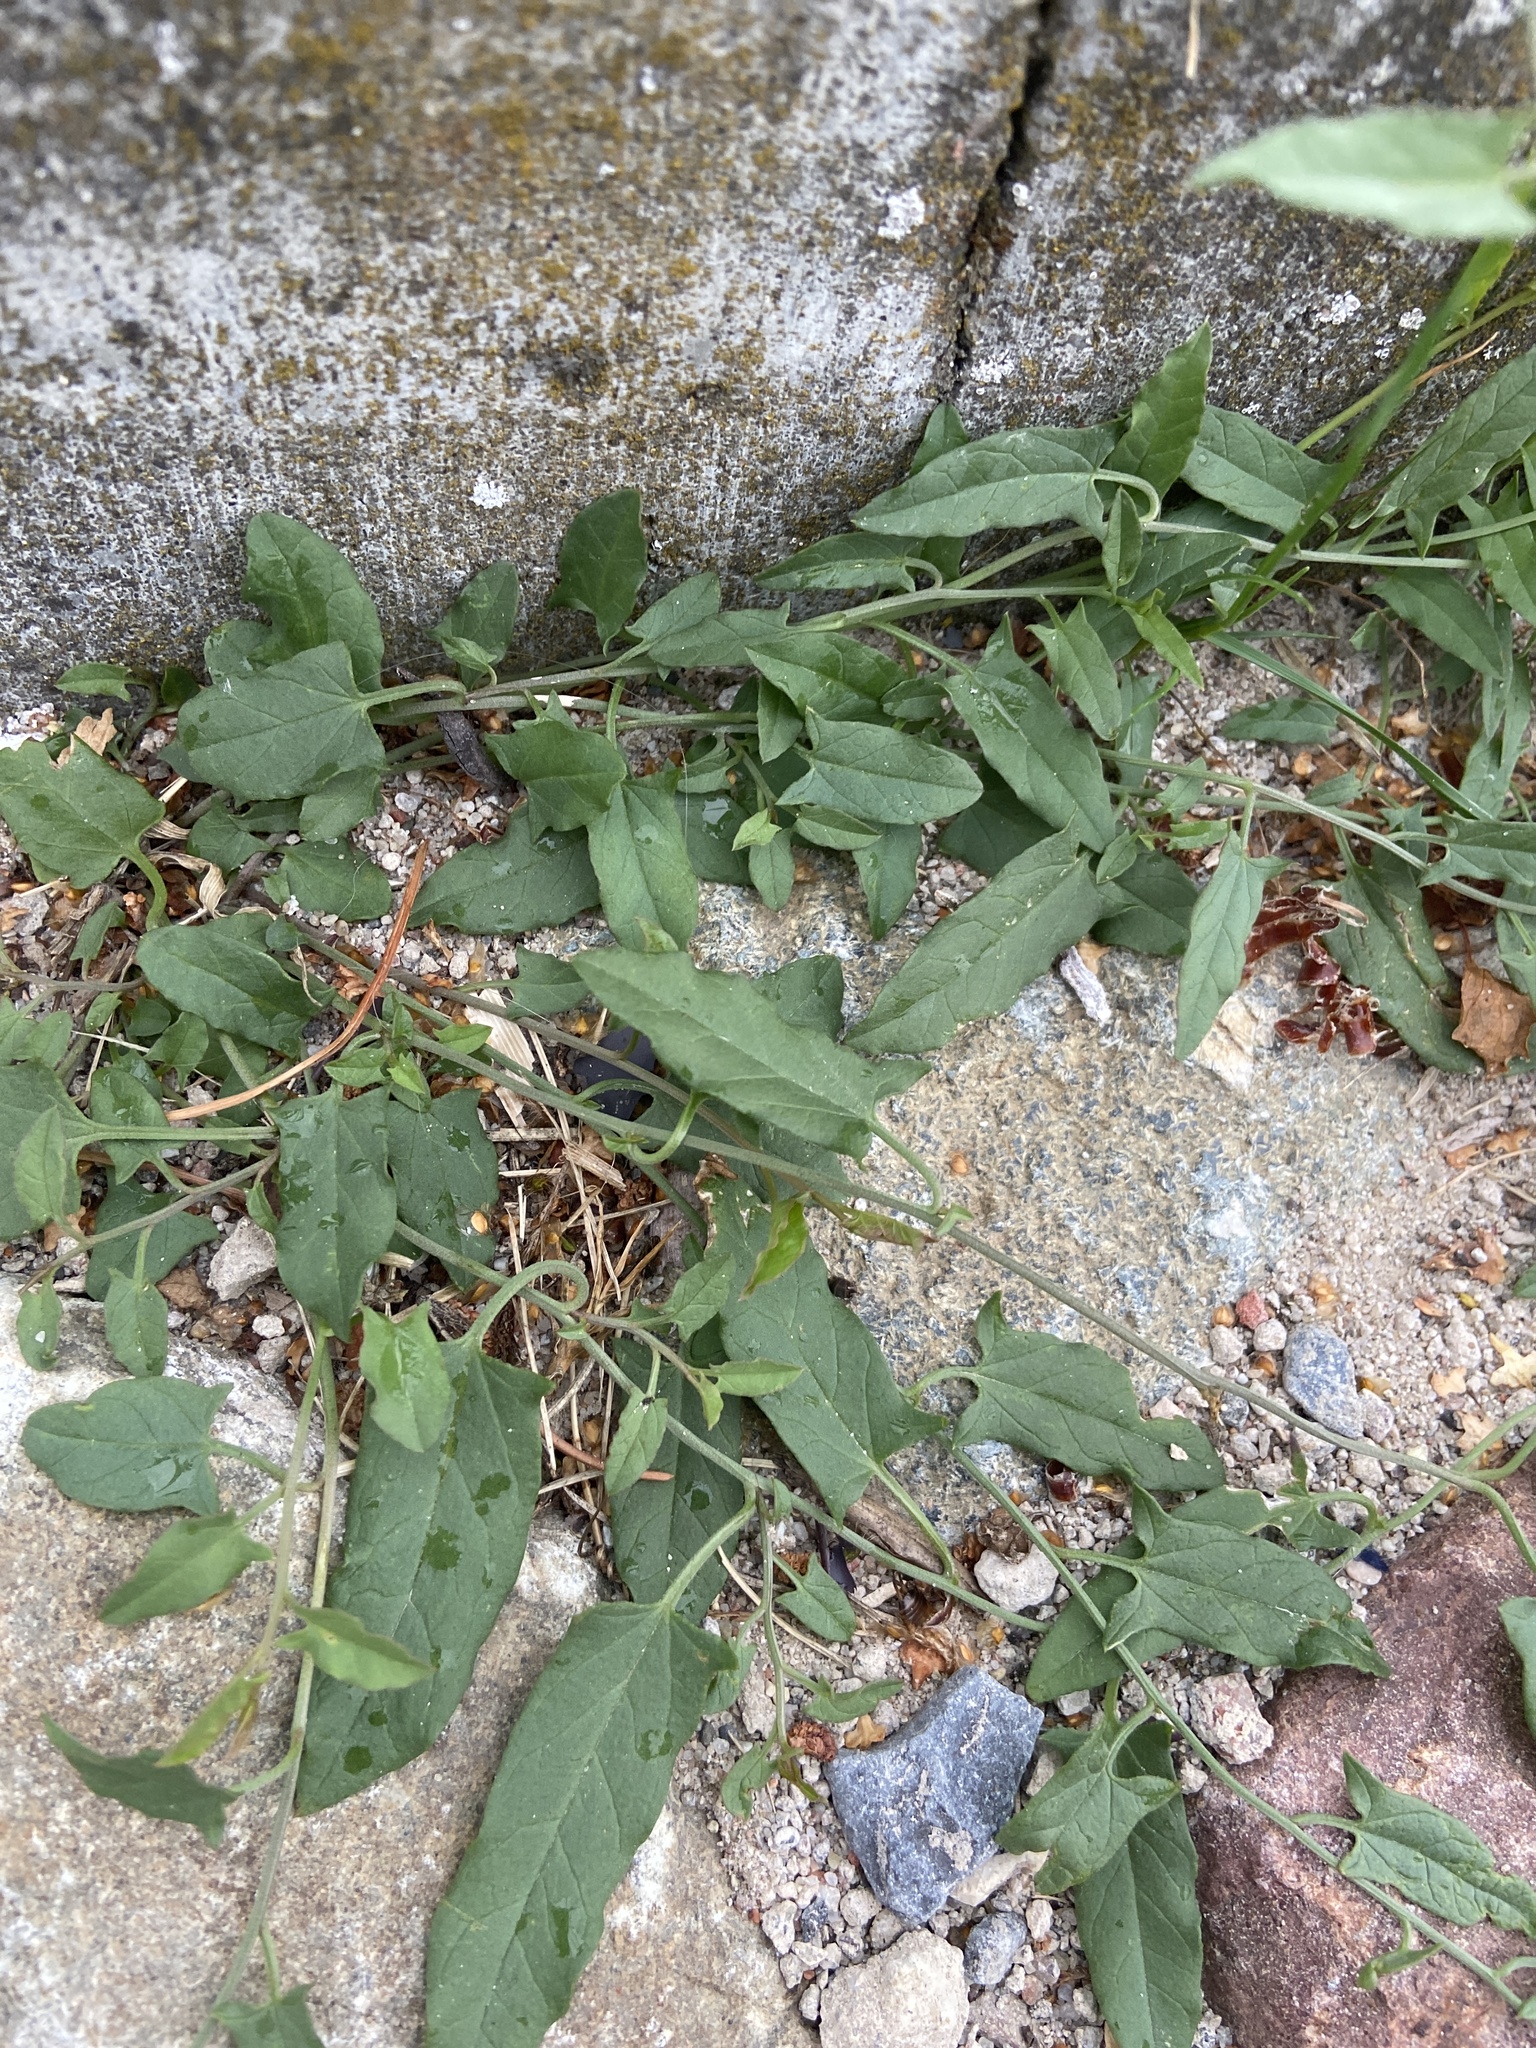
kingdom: Plantae
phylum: Tracheophyta
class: Magnoliopsida
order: Solanales
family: Convolvulaceae
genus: Convolvulus
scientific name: Convolvulus arvensis
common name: Field bindweed
